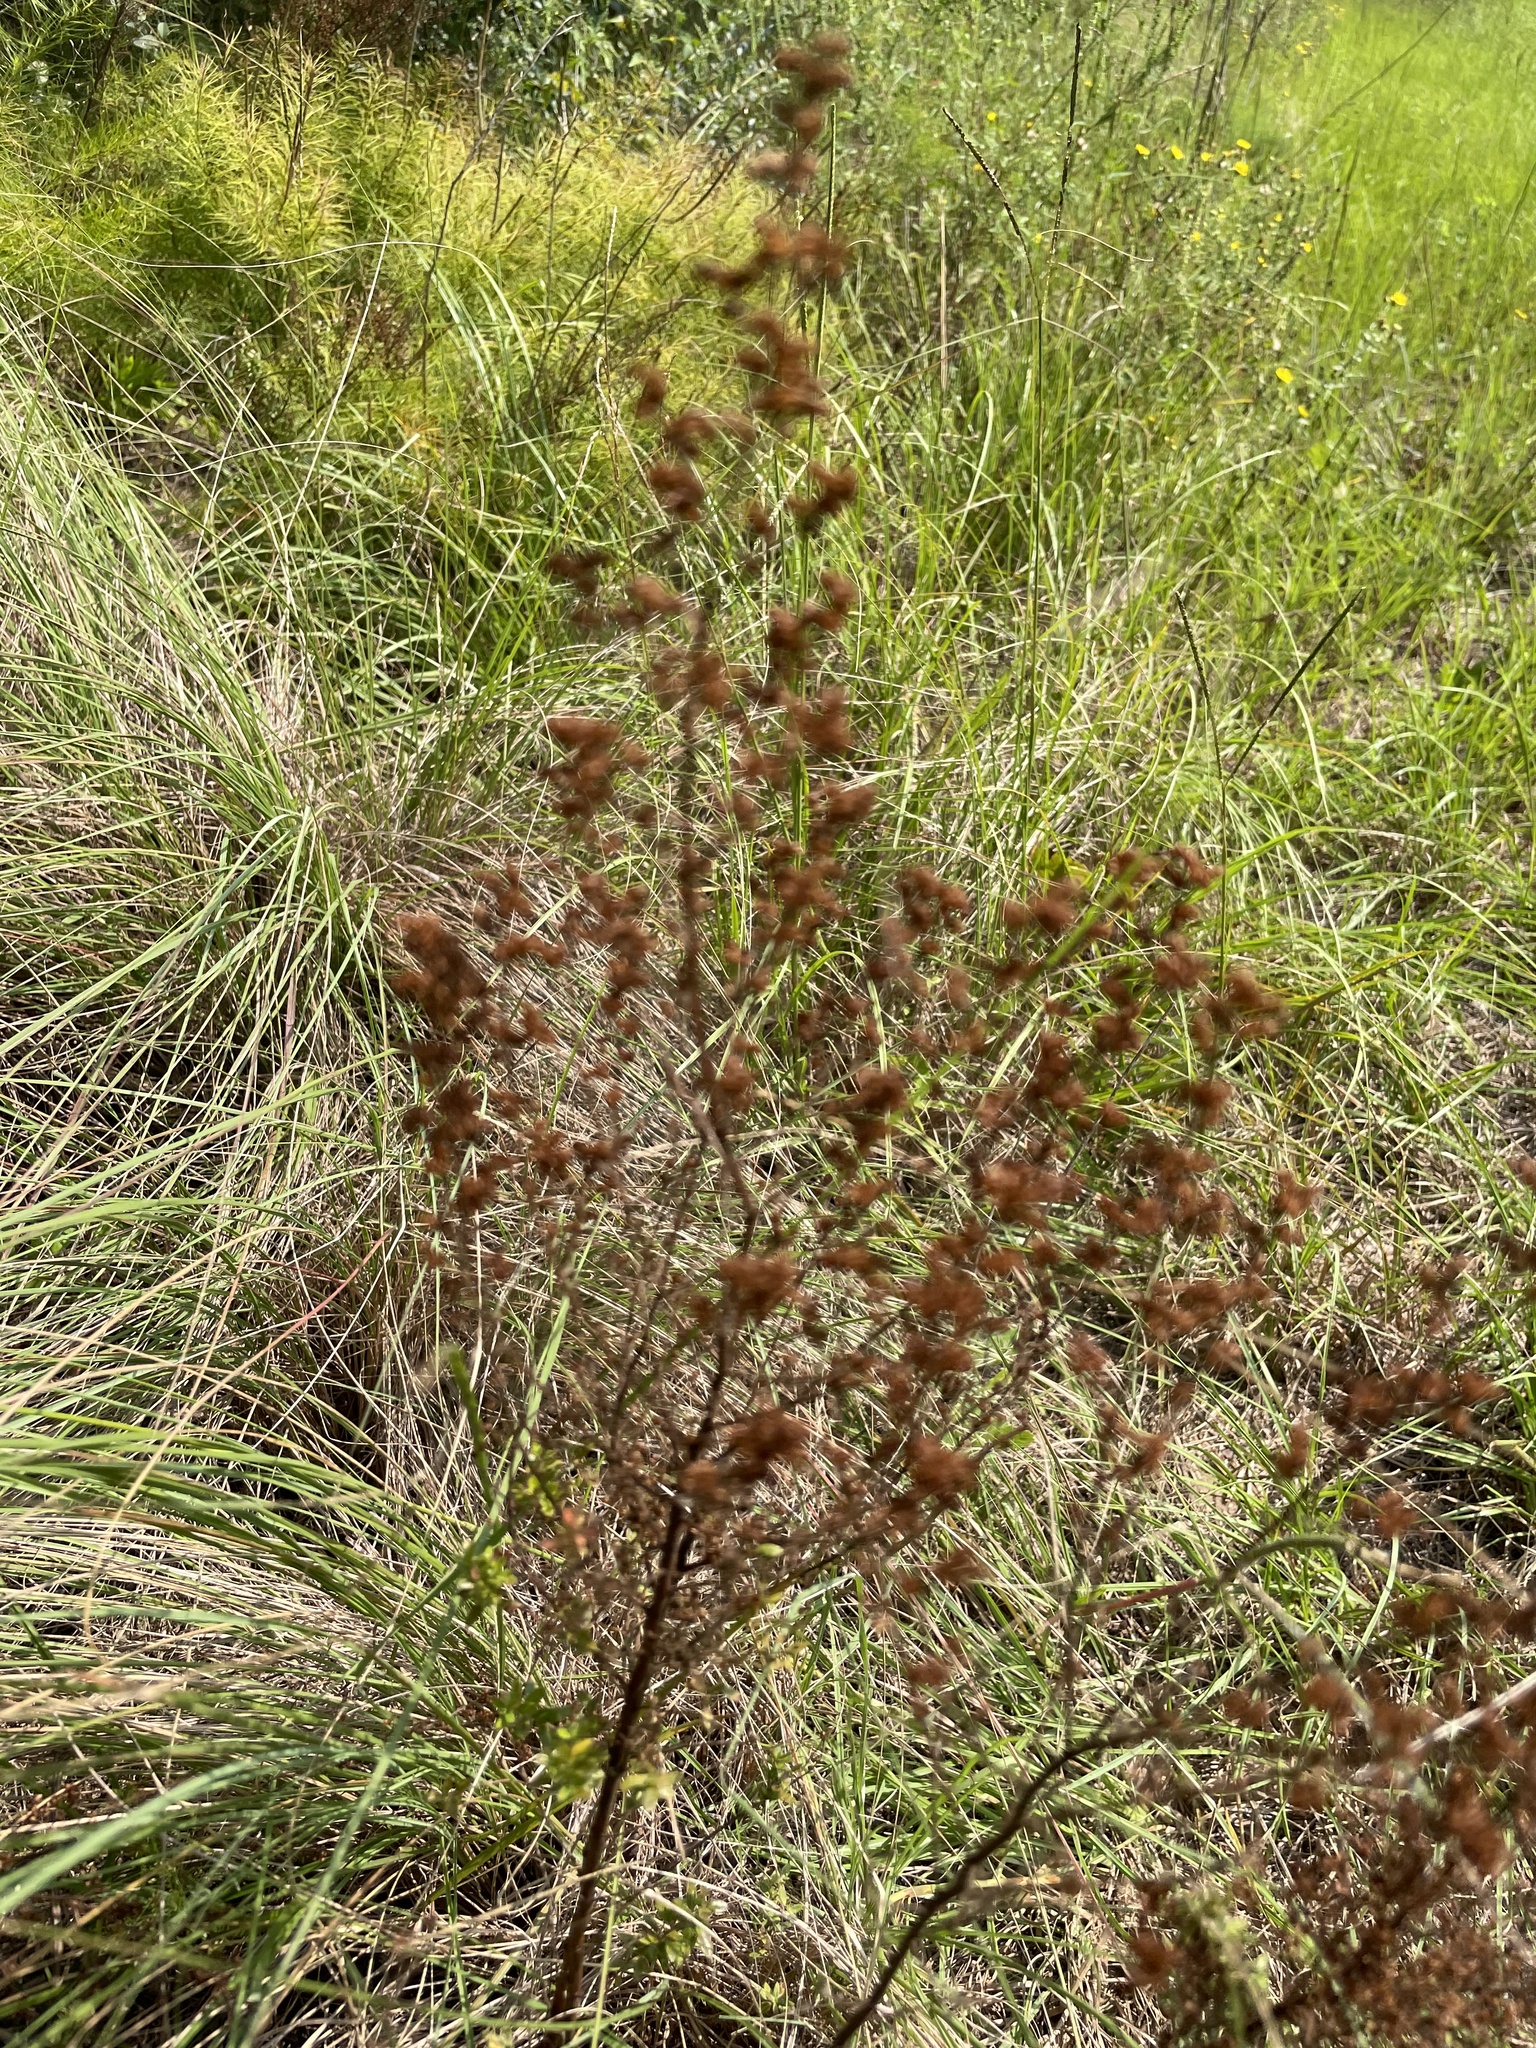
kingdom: Plantae
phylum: Tracheophyta
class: Magnoliopsida
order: Malvales
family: Cistaceae
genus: Lechea
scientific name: Lechea mucronata
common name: Hairy pinweed
